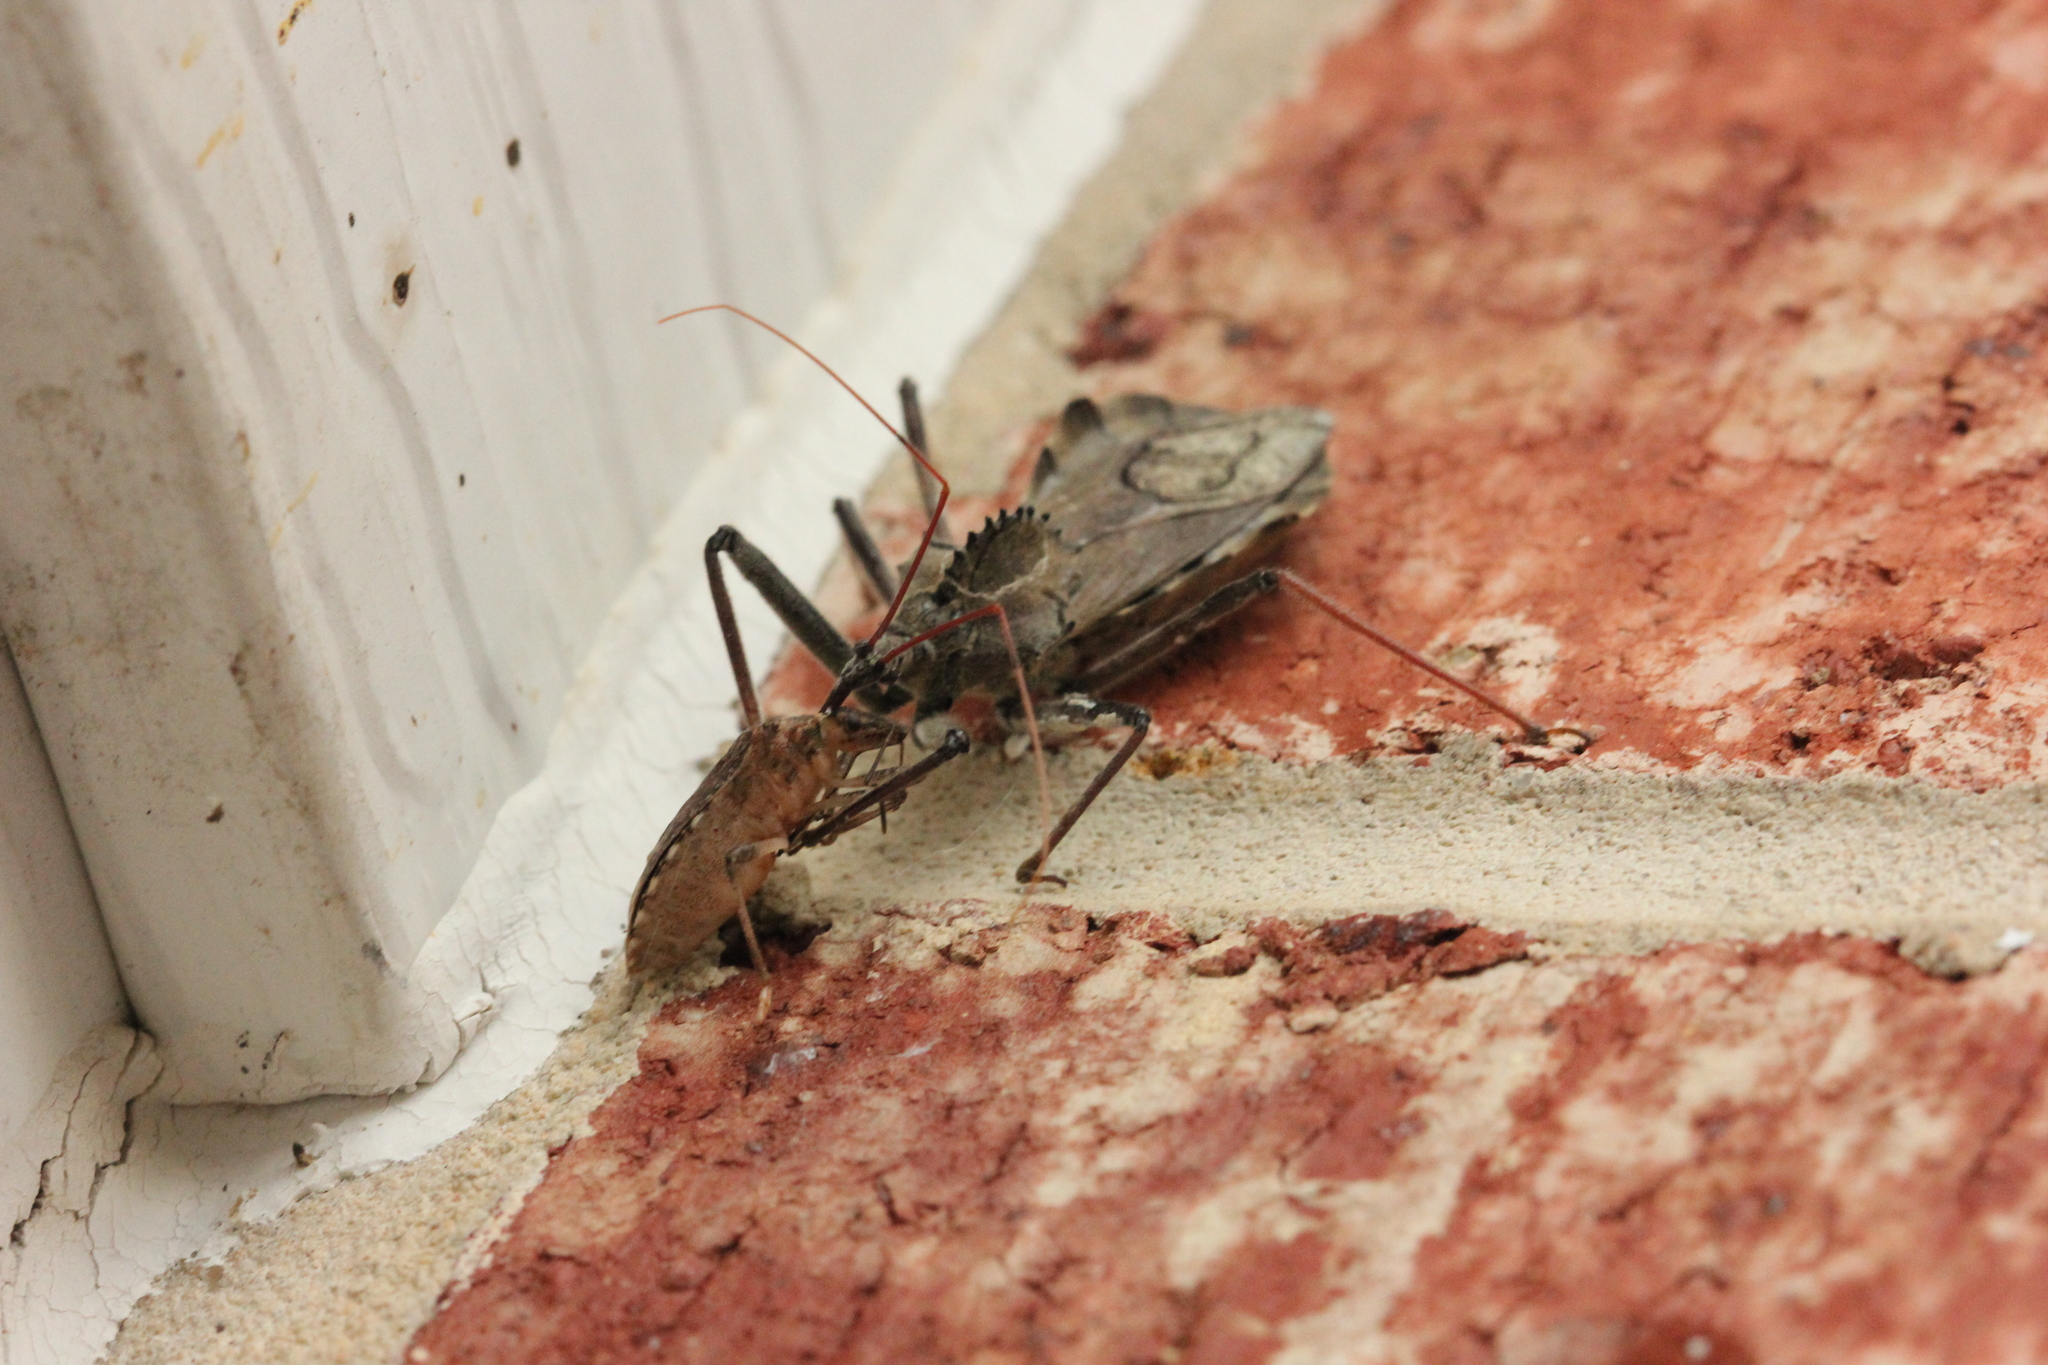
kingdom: Animalia
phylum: Arthropoda
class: Insecta
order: Hemiptera
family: Reduviidae
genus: Arilus
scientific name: Arilus cristatus
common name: North american wheel bug
